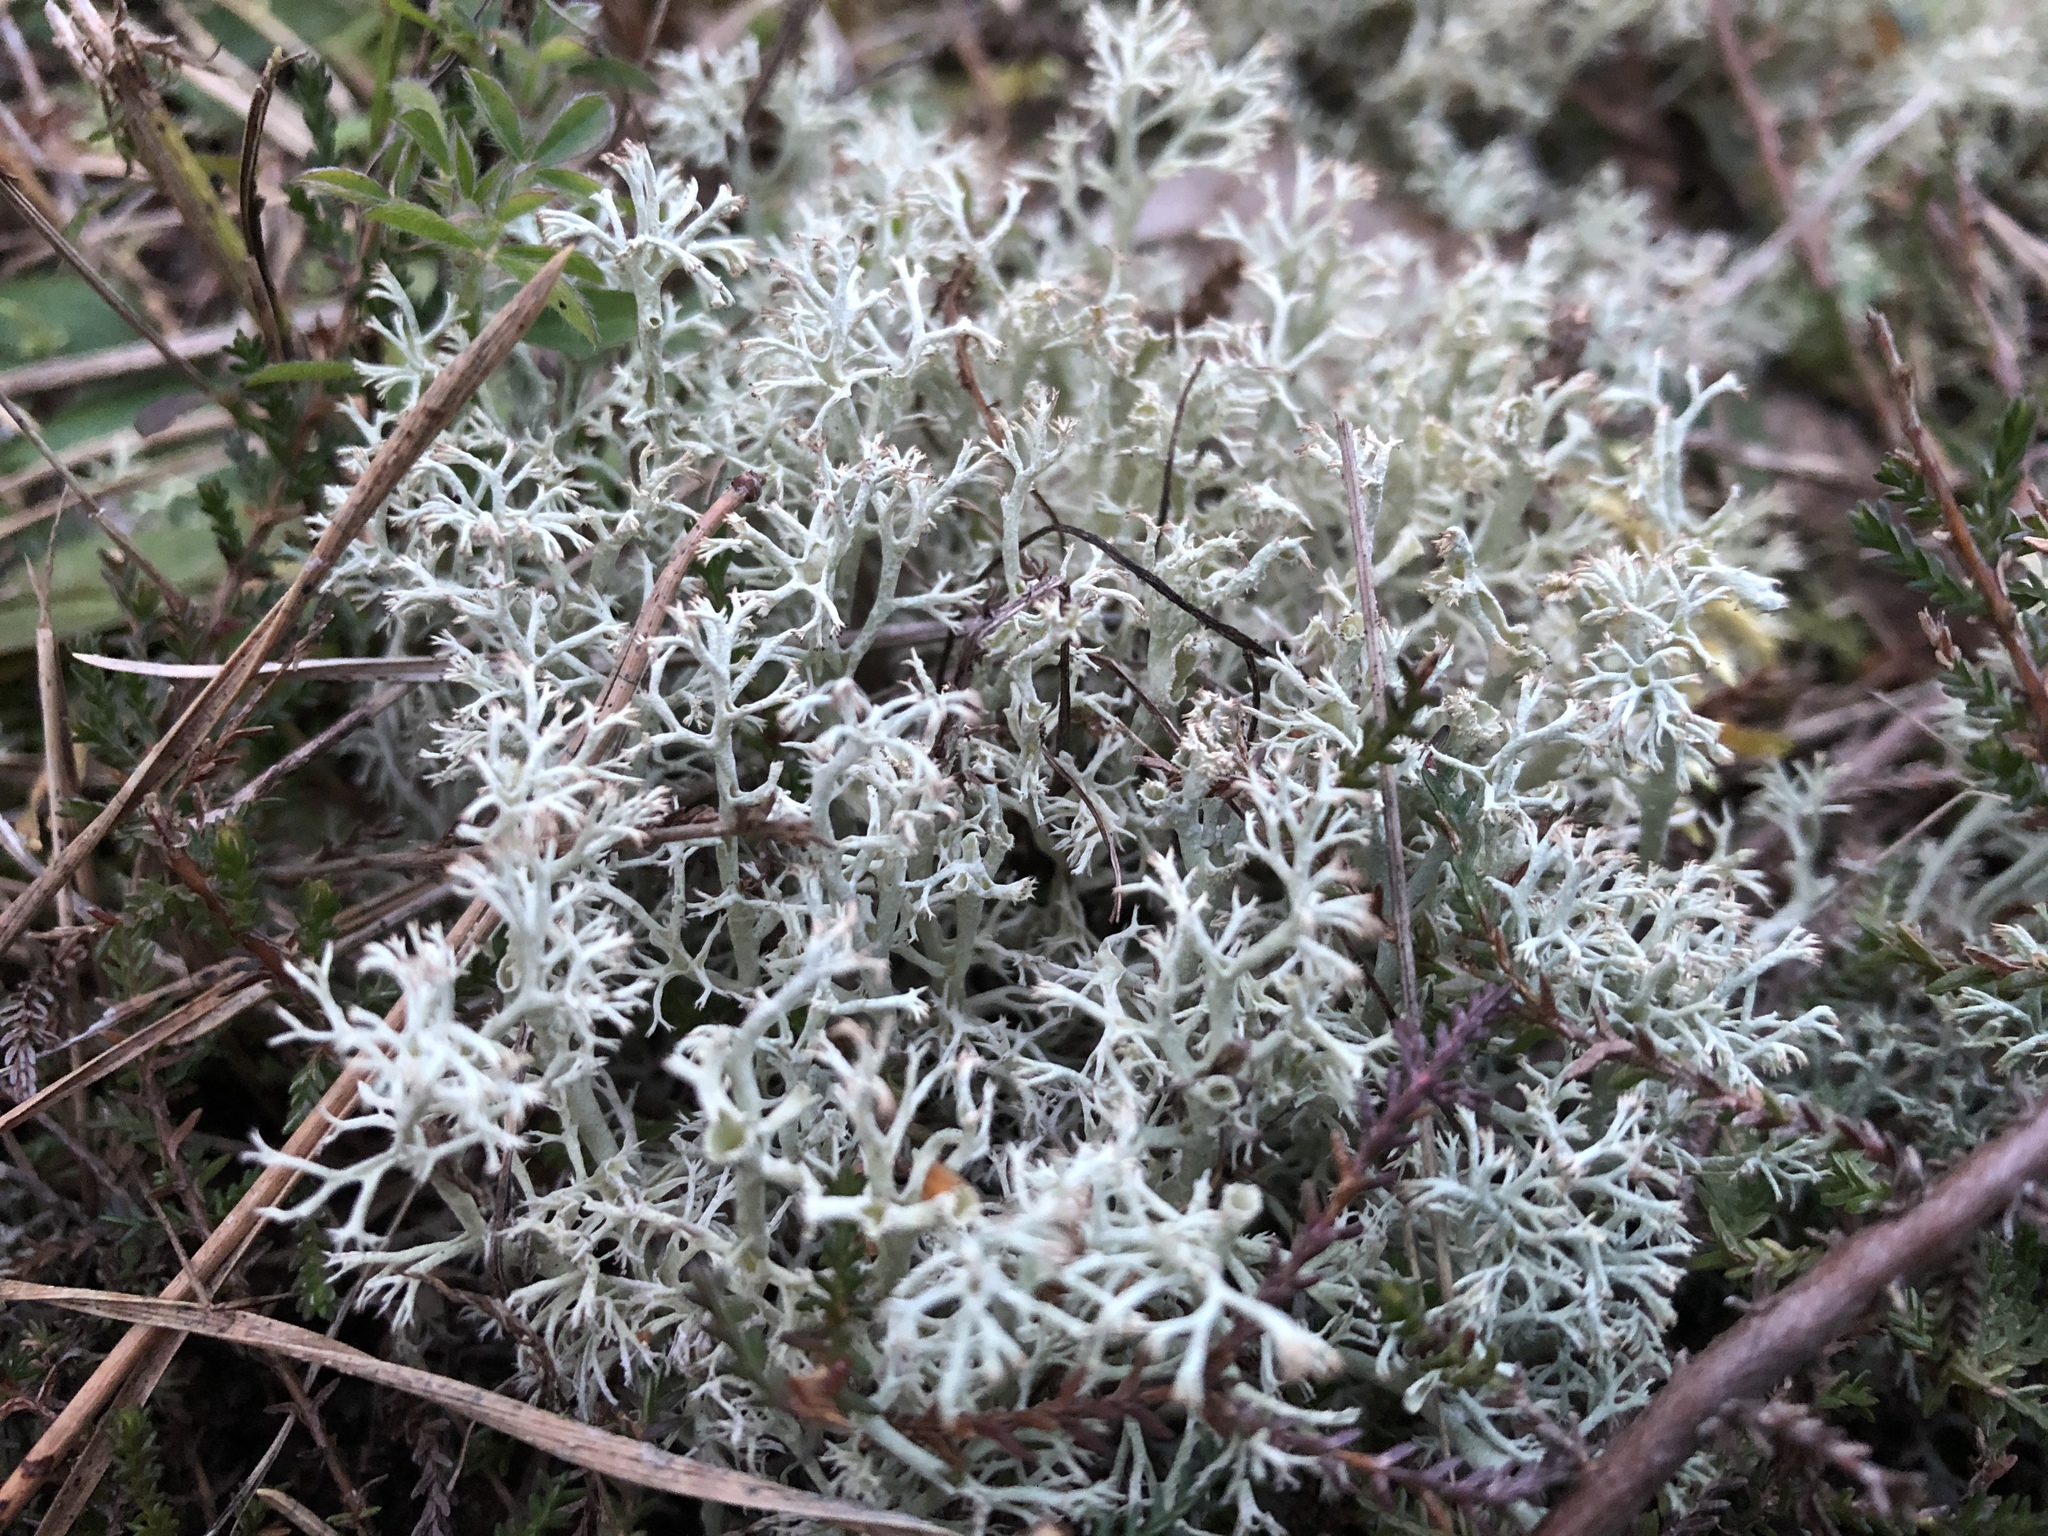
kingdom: Fungi
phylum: Ascomycota
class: Lecanoromycetes
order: Lecanorales
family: Cladoniaceae
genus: Cladonia
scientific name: Cladonia arbuscula
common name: Reindeer lichen
